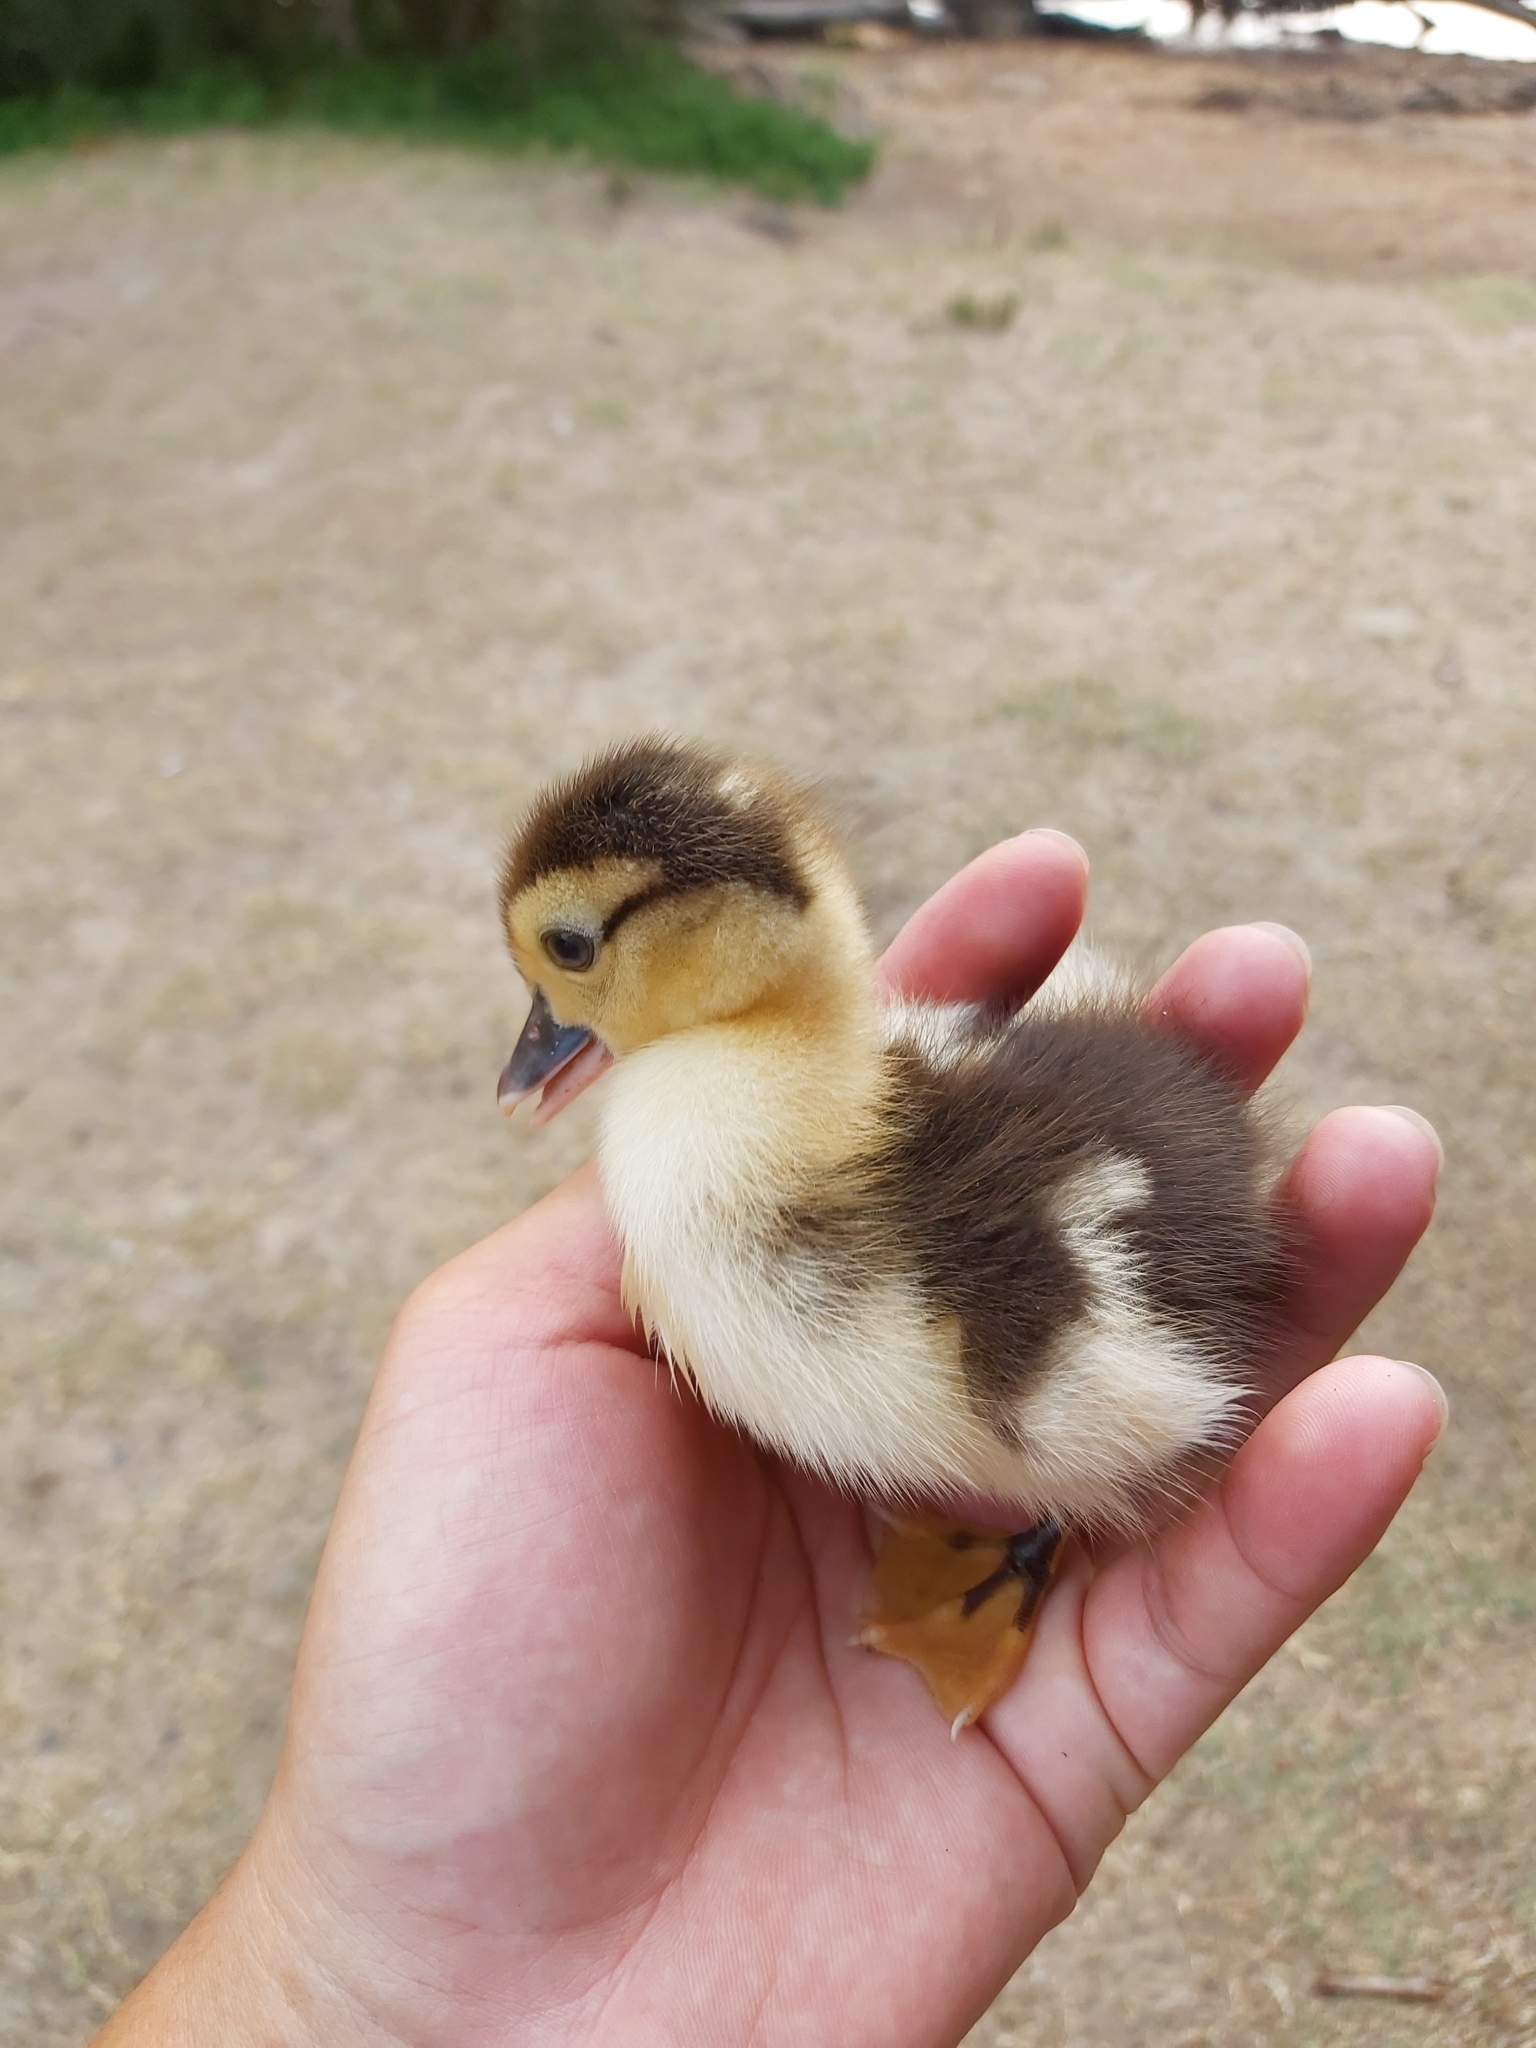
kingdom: Animalia
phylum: Chordata
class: Aves
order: Anseriformes
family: Anatidae
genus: Cairina
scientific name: Cairina moschata
